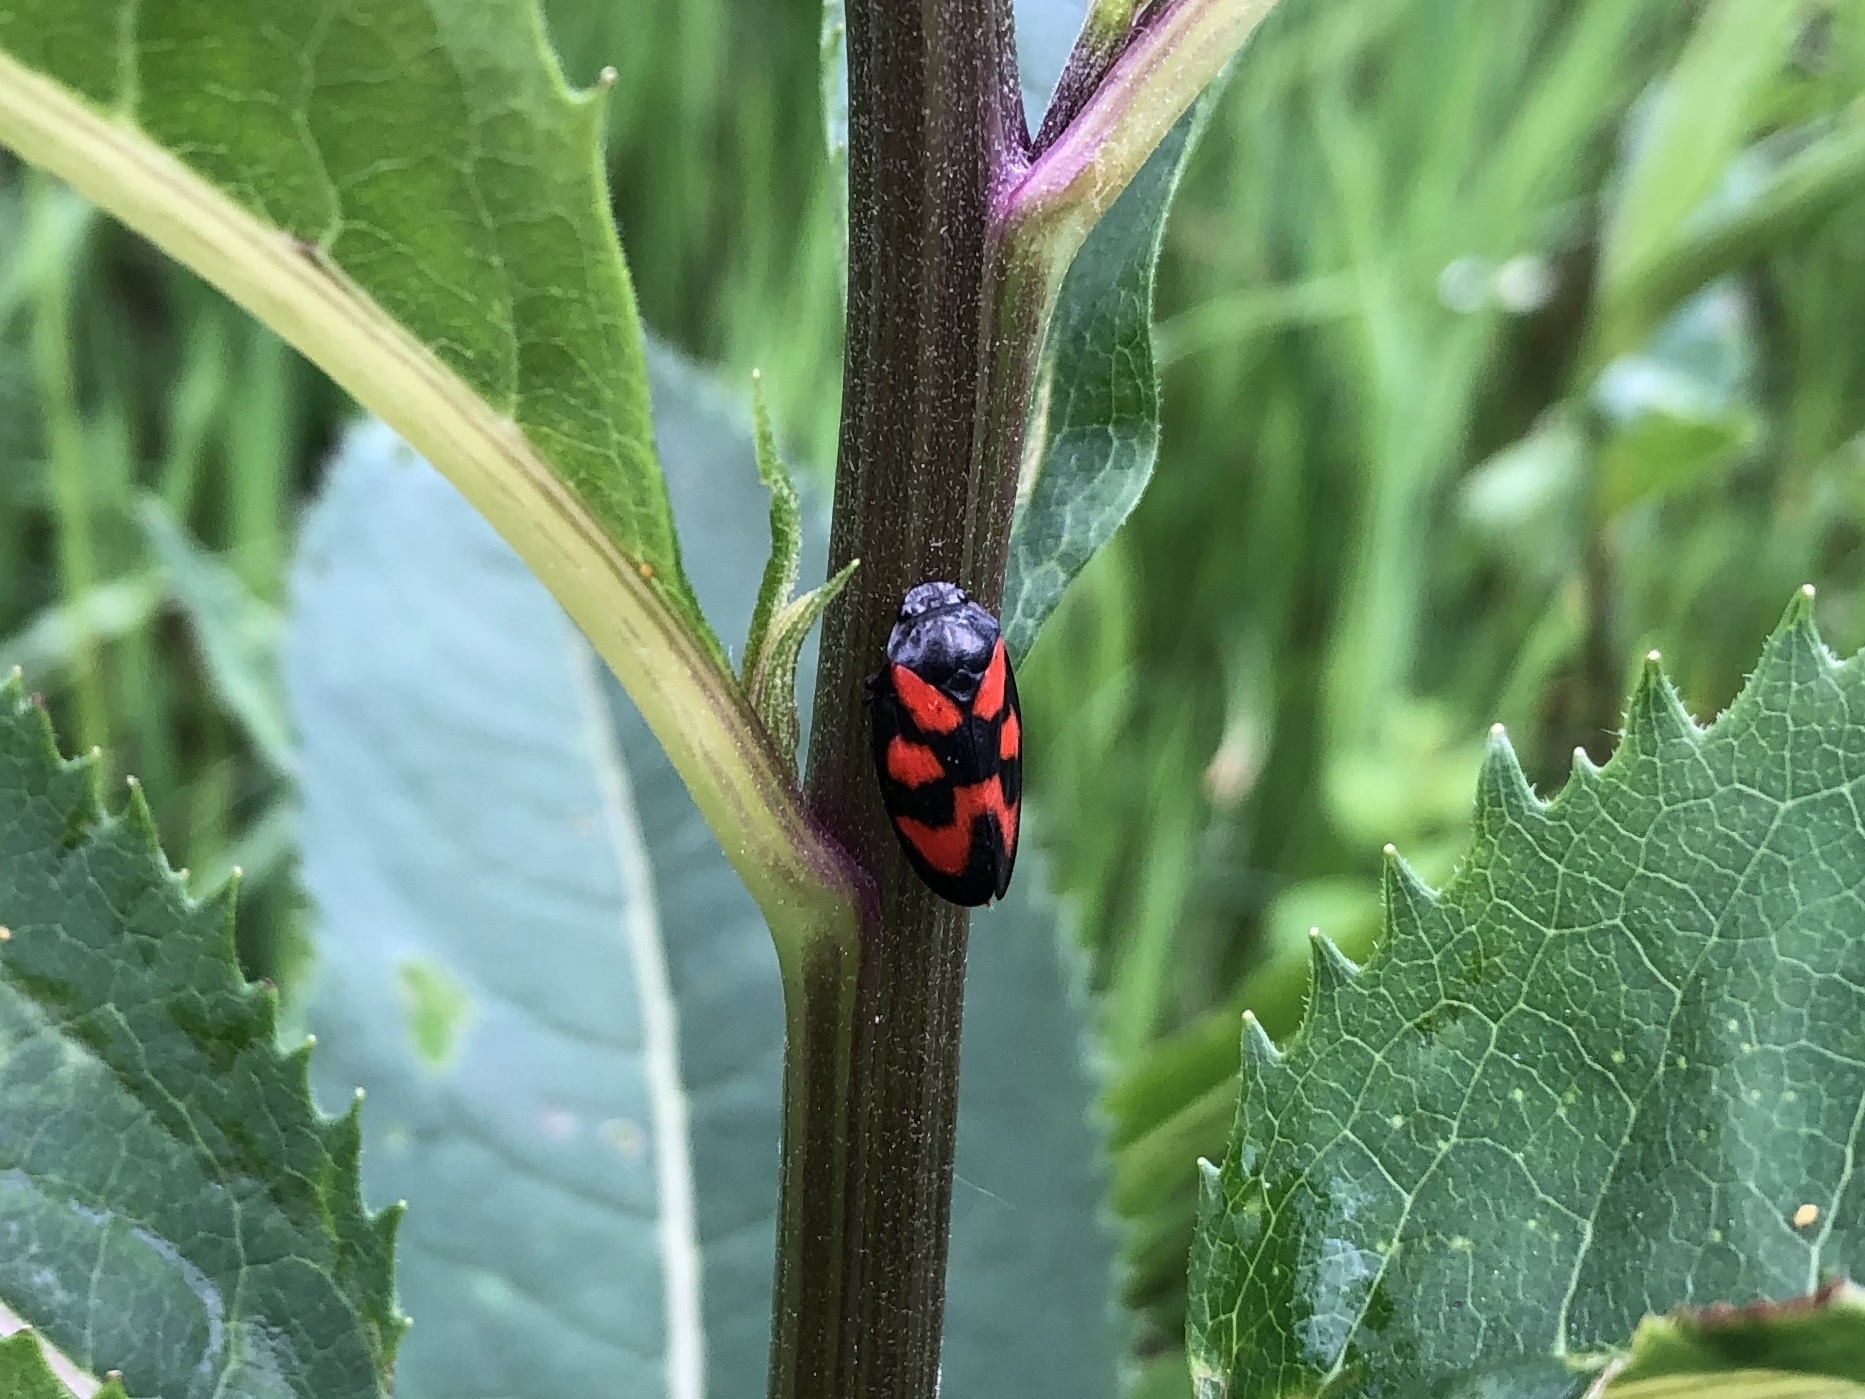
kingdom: Animalia
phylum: Arthropoda
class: Insecta
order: Hemiptera
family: Cercopidae
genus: Cercopis
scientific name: Cercopis vulnerata
